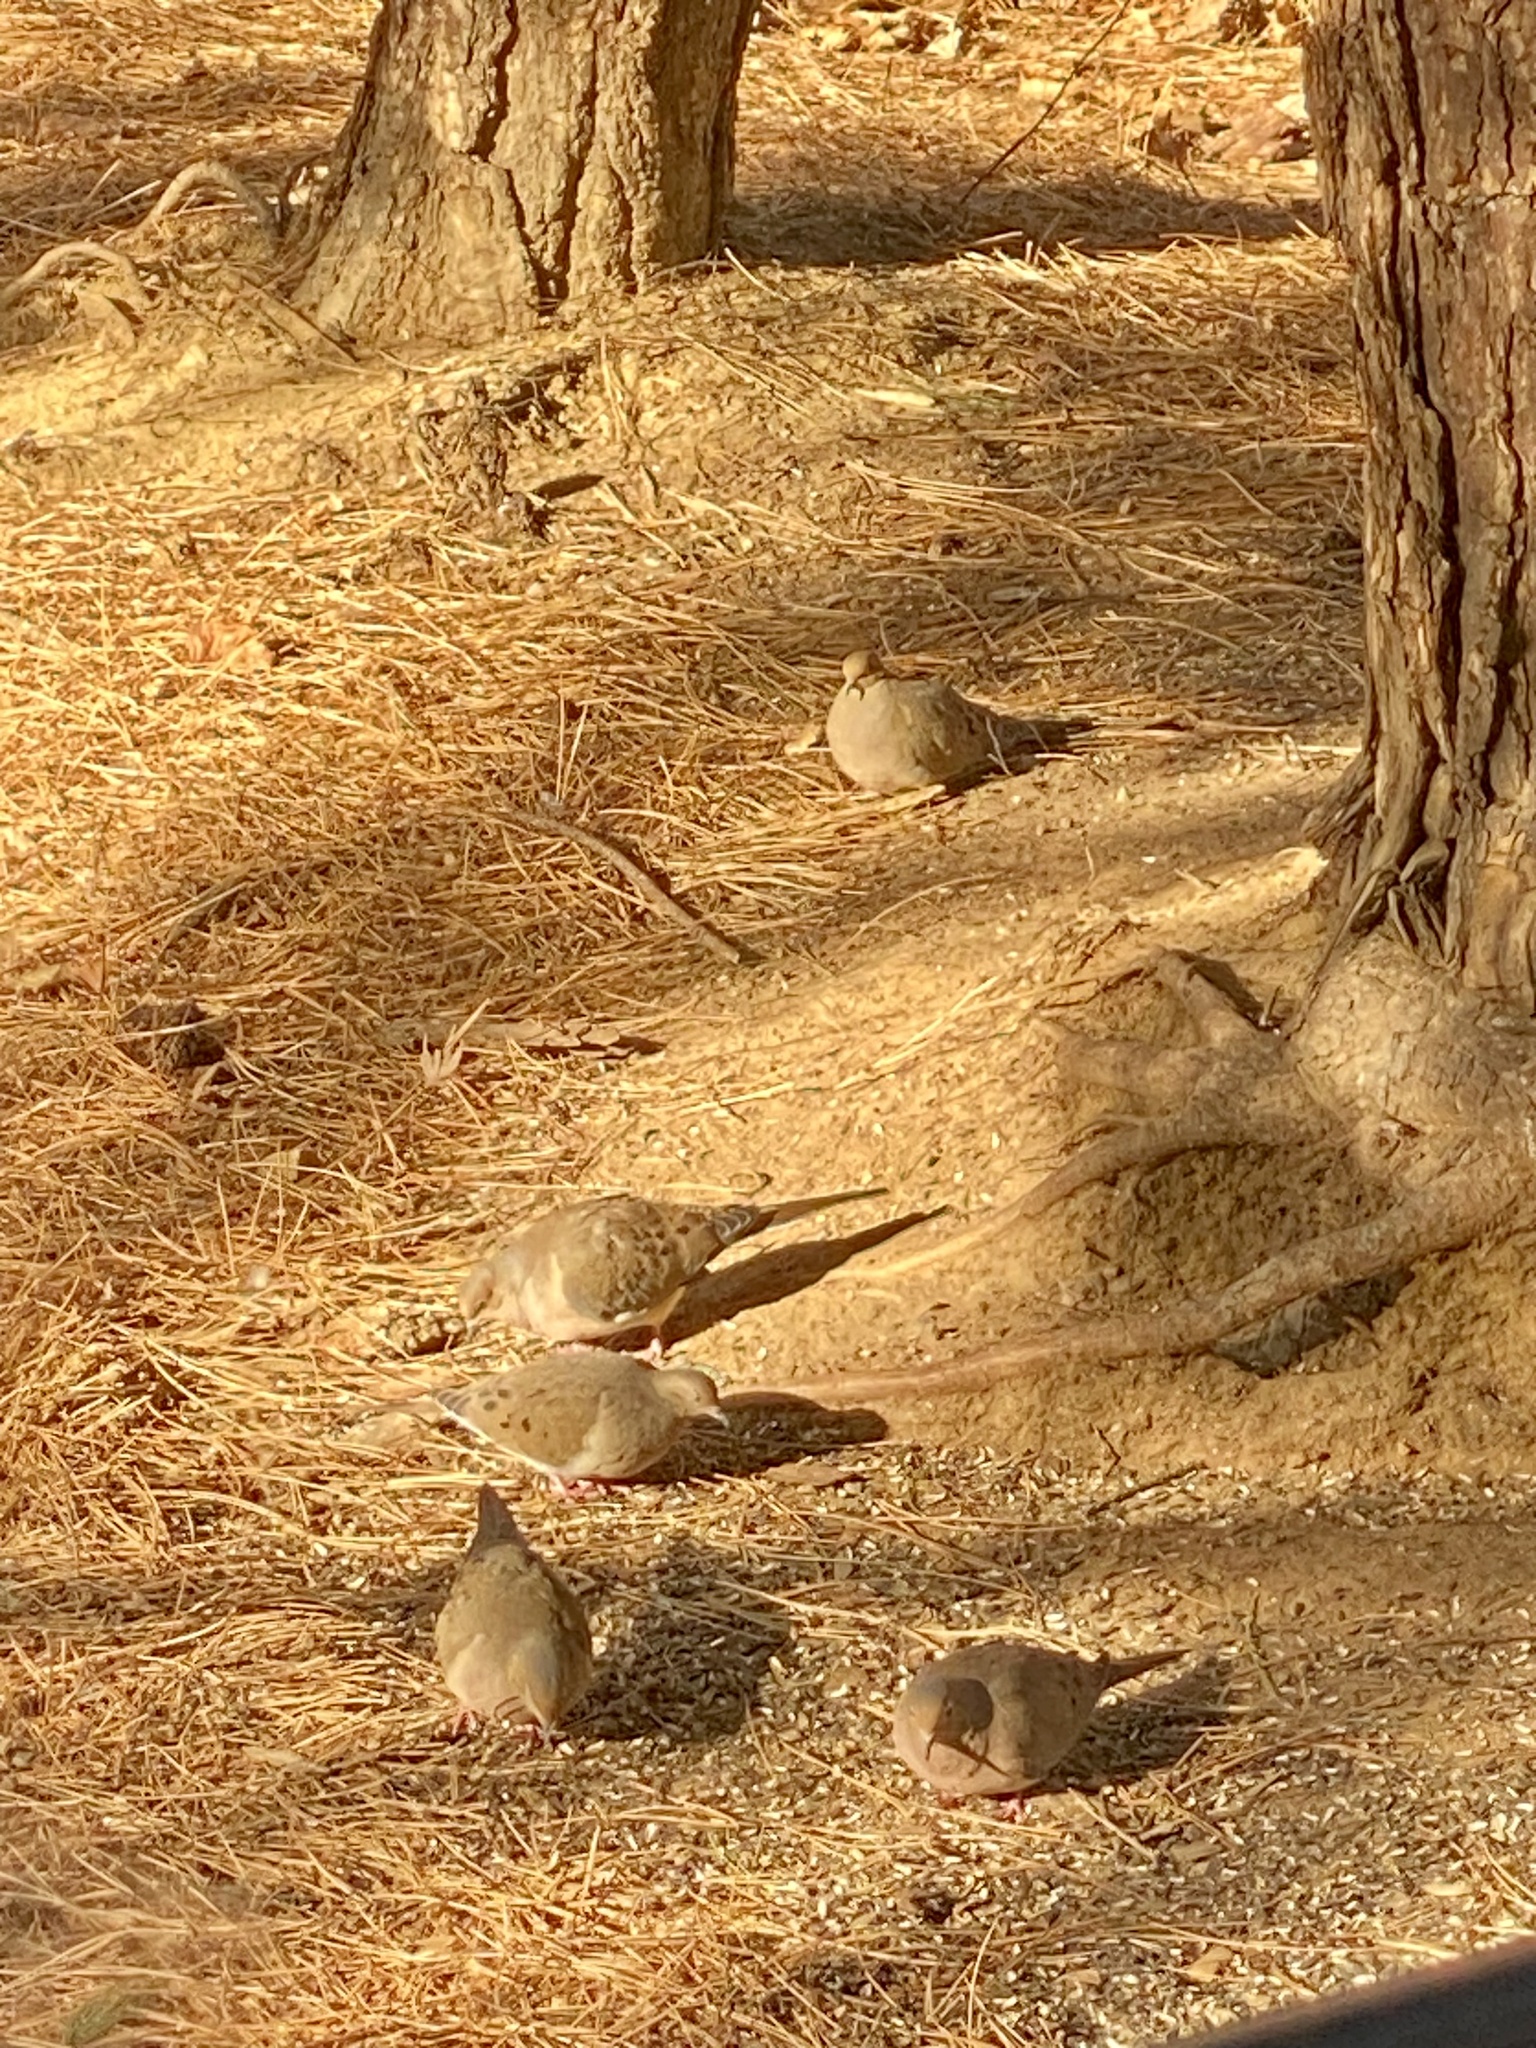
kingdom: Animalia
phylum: Chordata
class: Aves
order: Columbiformes
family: Columbidae
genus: Zenaida
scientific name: Zenaida macroura
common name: Mourning dove
